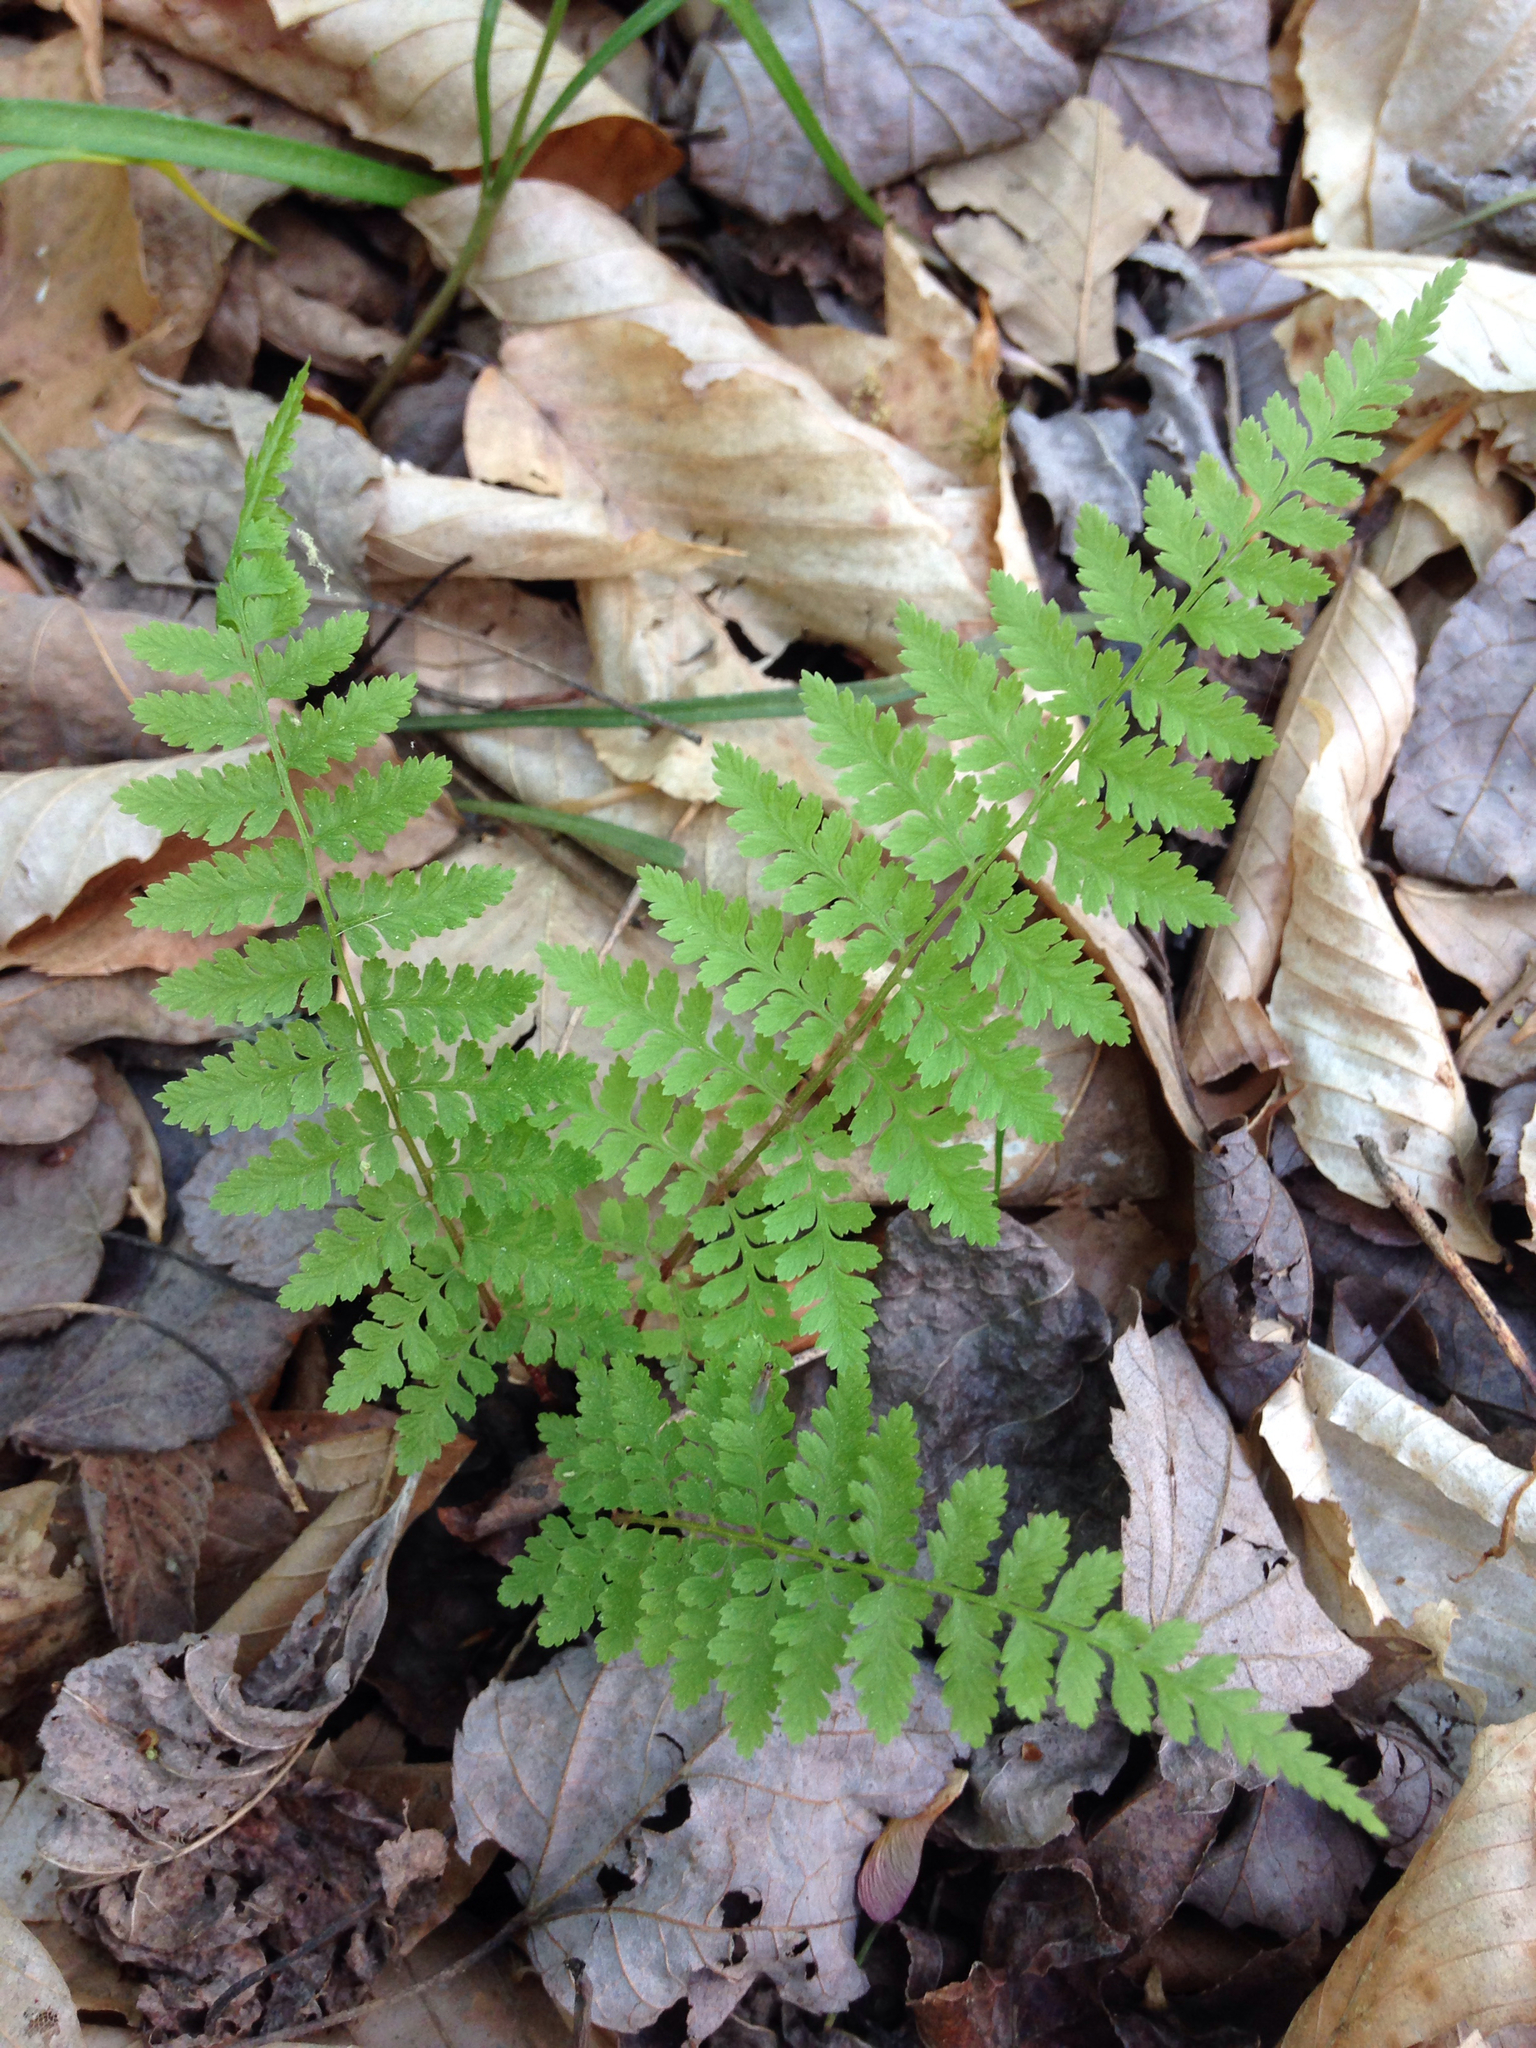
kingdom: Plantae
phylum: Tracheophyta
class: Polypodiopsida
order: Polypodiales
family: Athyriaceae
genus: Athyrium
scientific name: Athyrium asplenioides
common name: Southern lady fern
